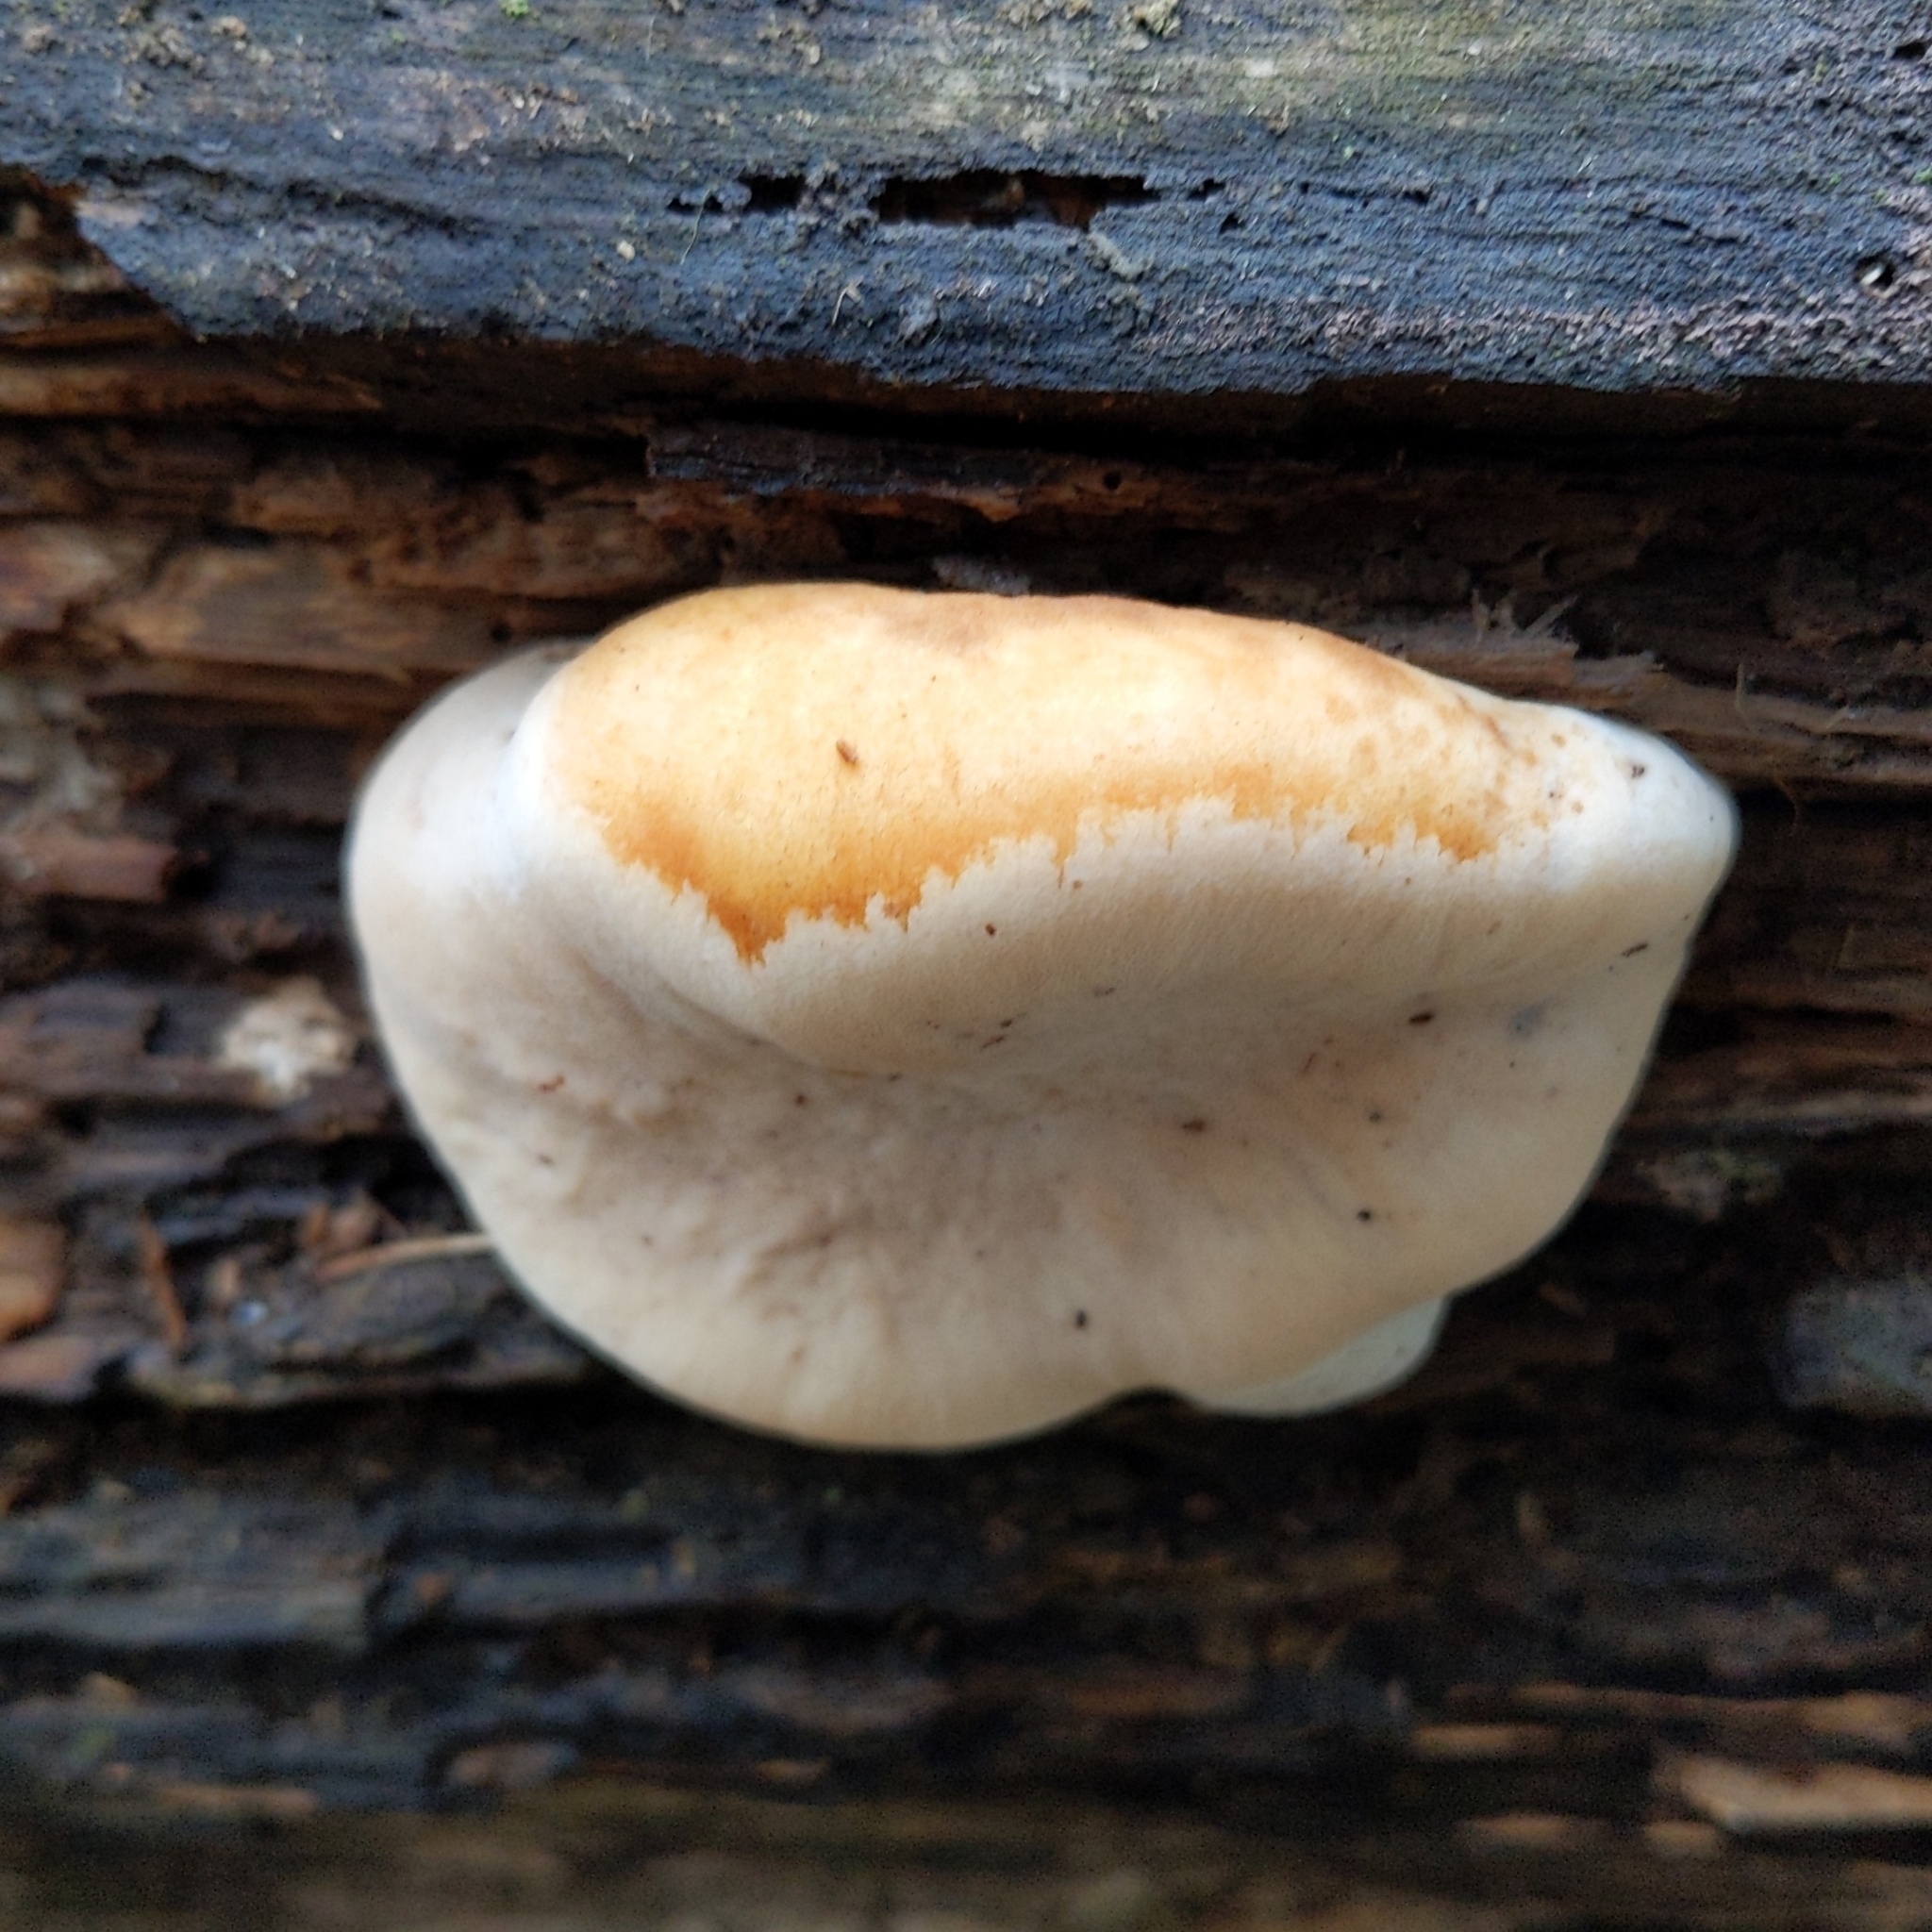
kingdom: Fungi
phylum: Basidiomycota
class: Agaricomycetes
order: Polyporales
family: Ischnodermataceae
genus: Ischnoderma
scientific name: Ischnoderma resinosum
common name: Resinous polypore
